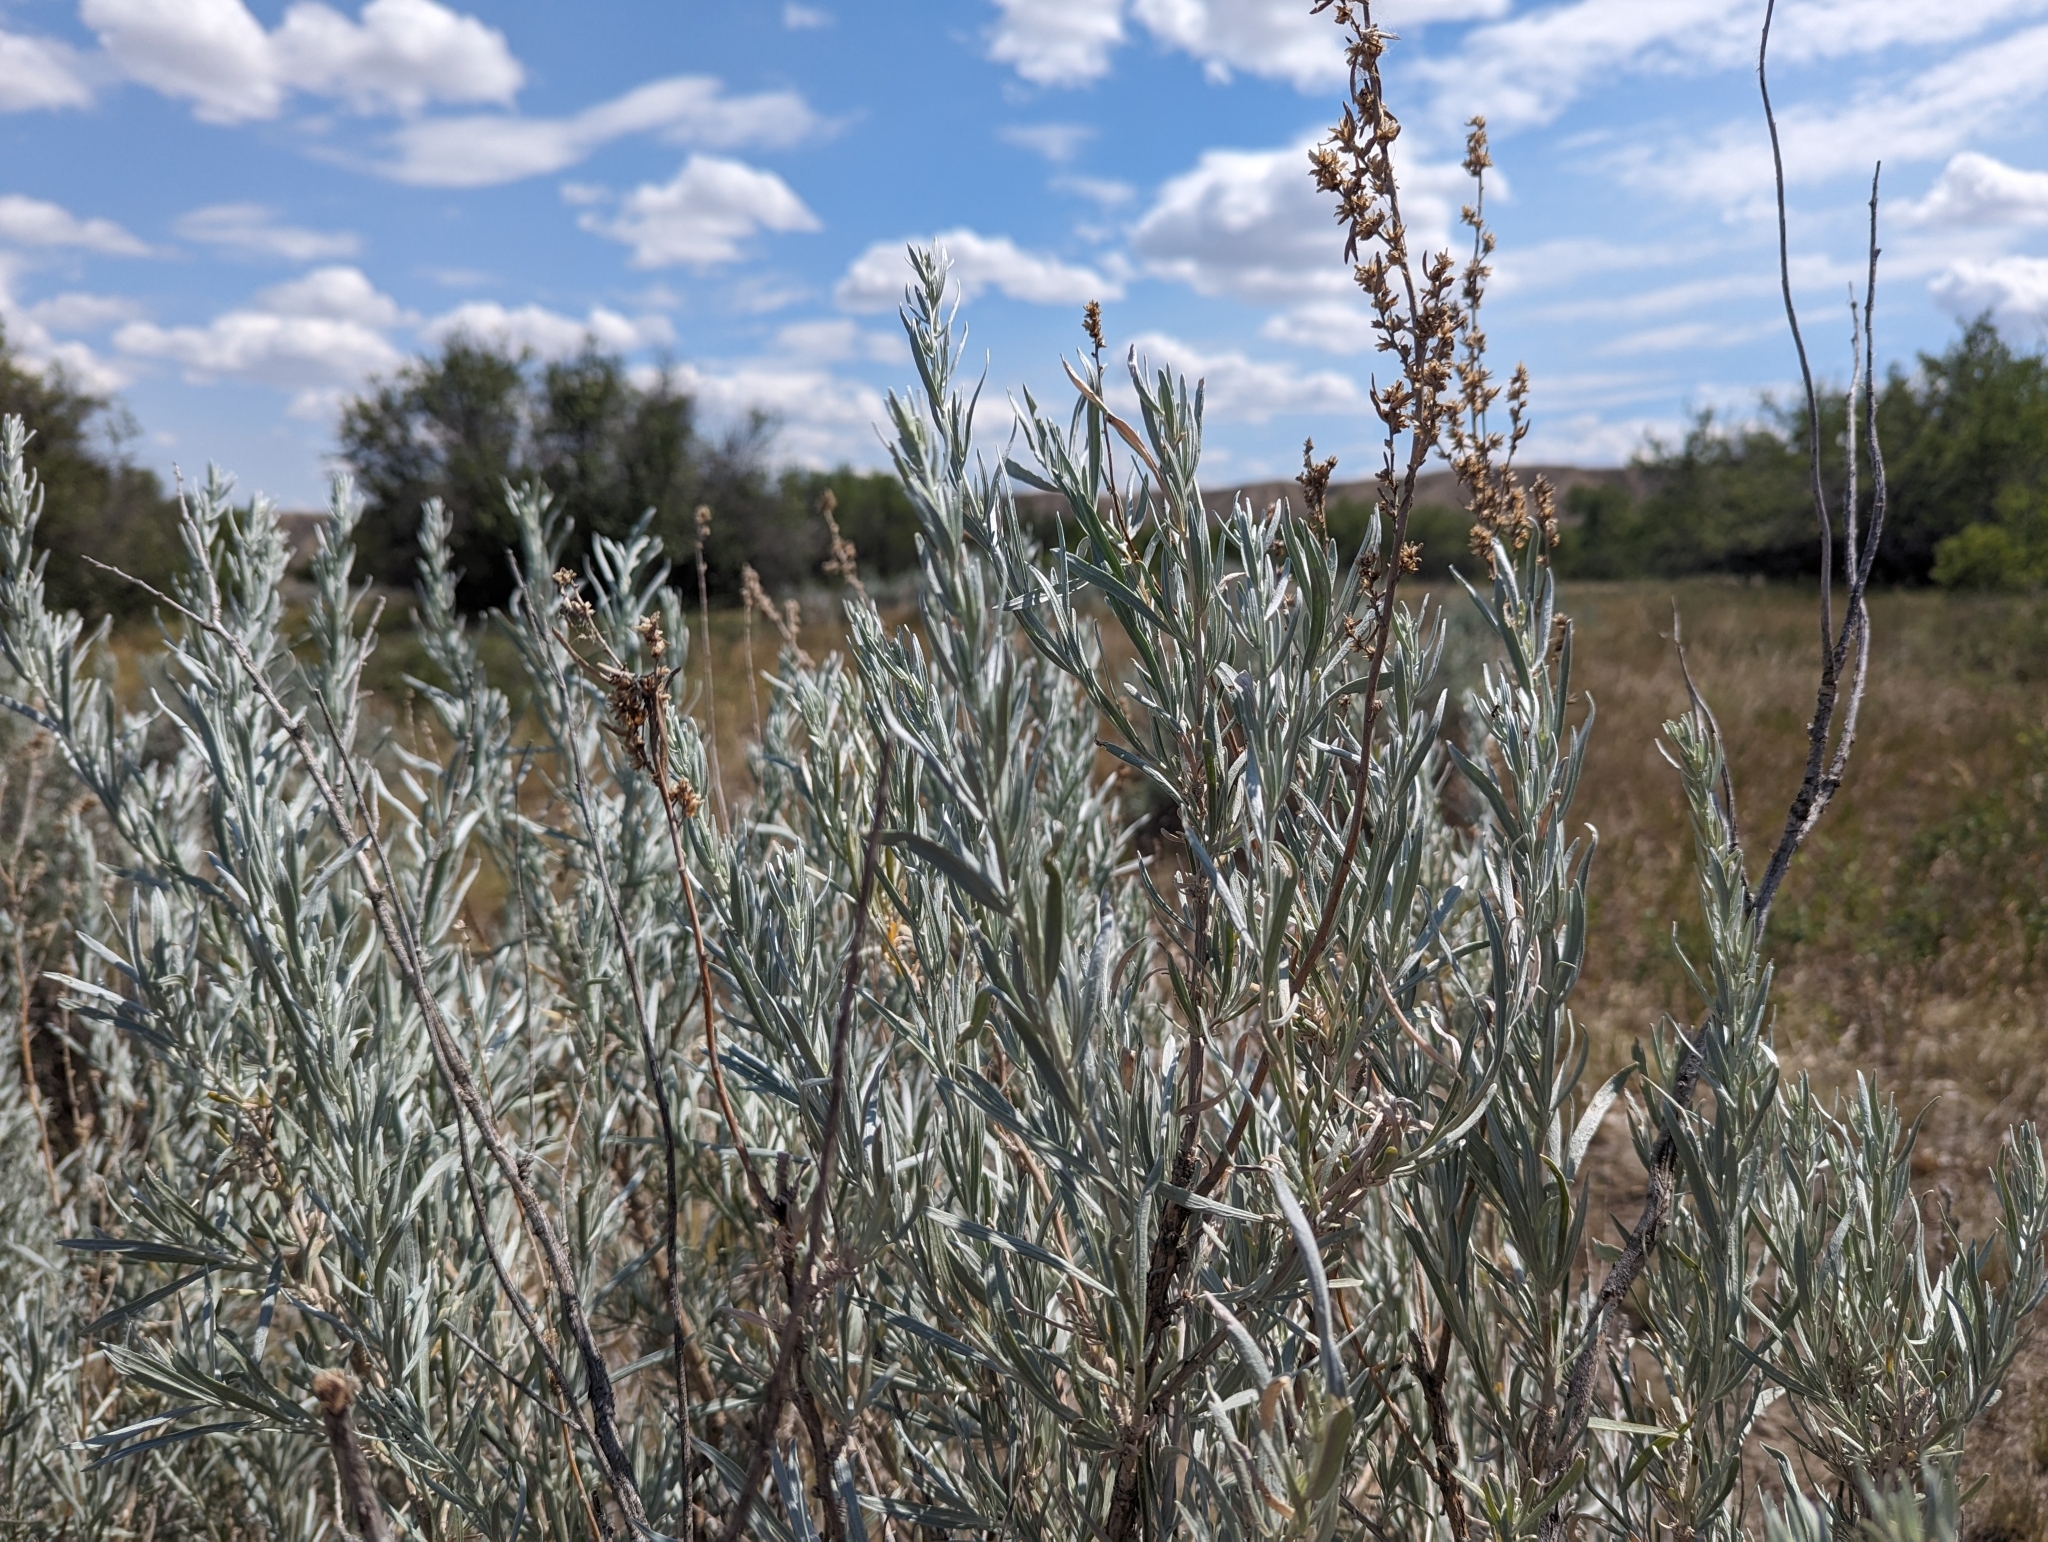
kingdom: Plantae
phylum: Tracheophyta
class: Magnoliopsida
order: Asterales
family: Asteraceae
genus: Artemisia
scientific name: Artemisia cana
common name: Silver sagebrush
